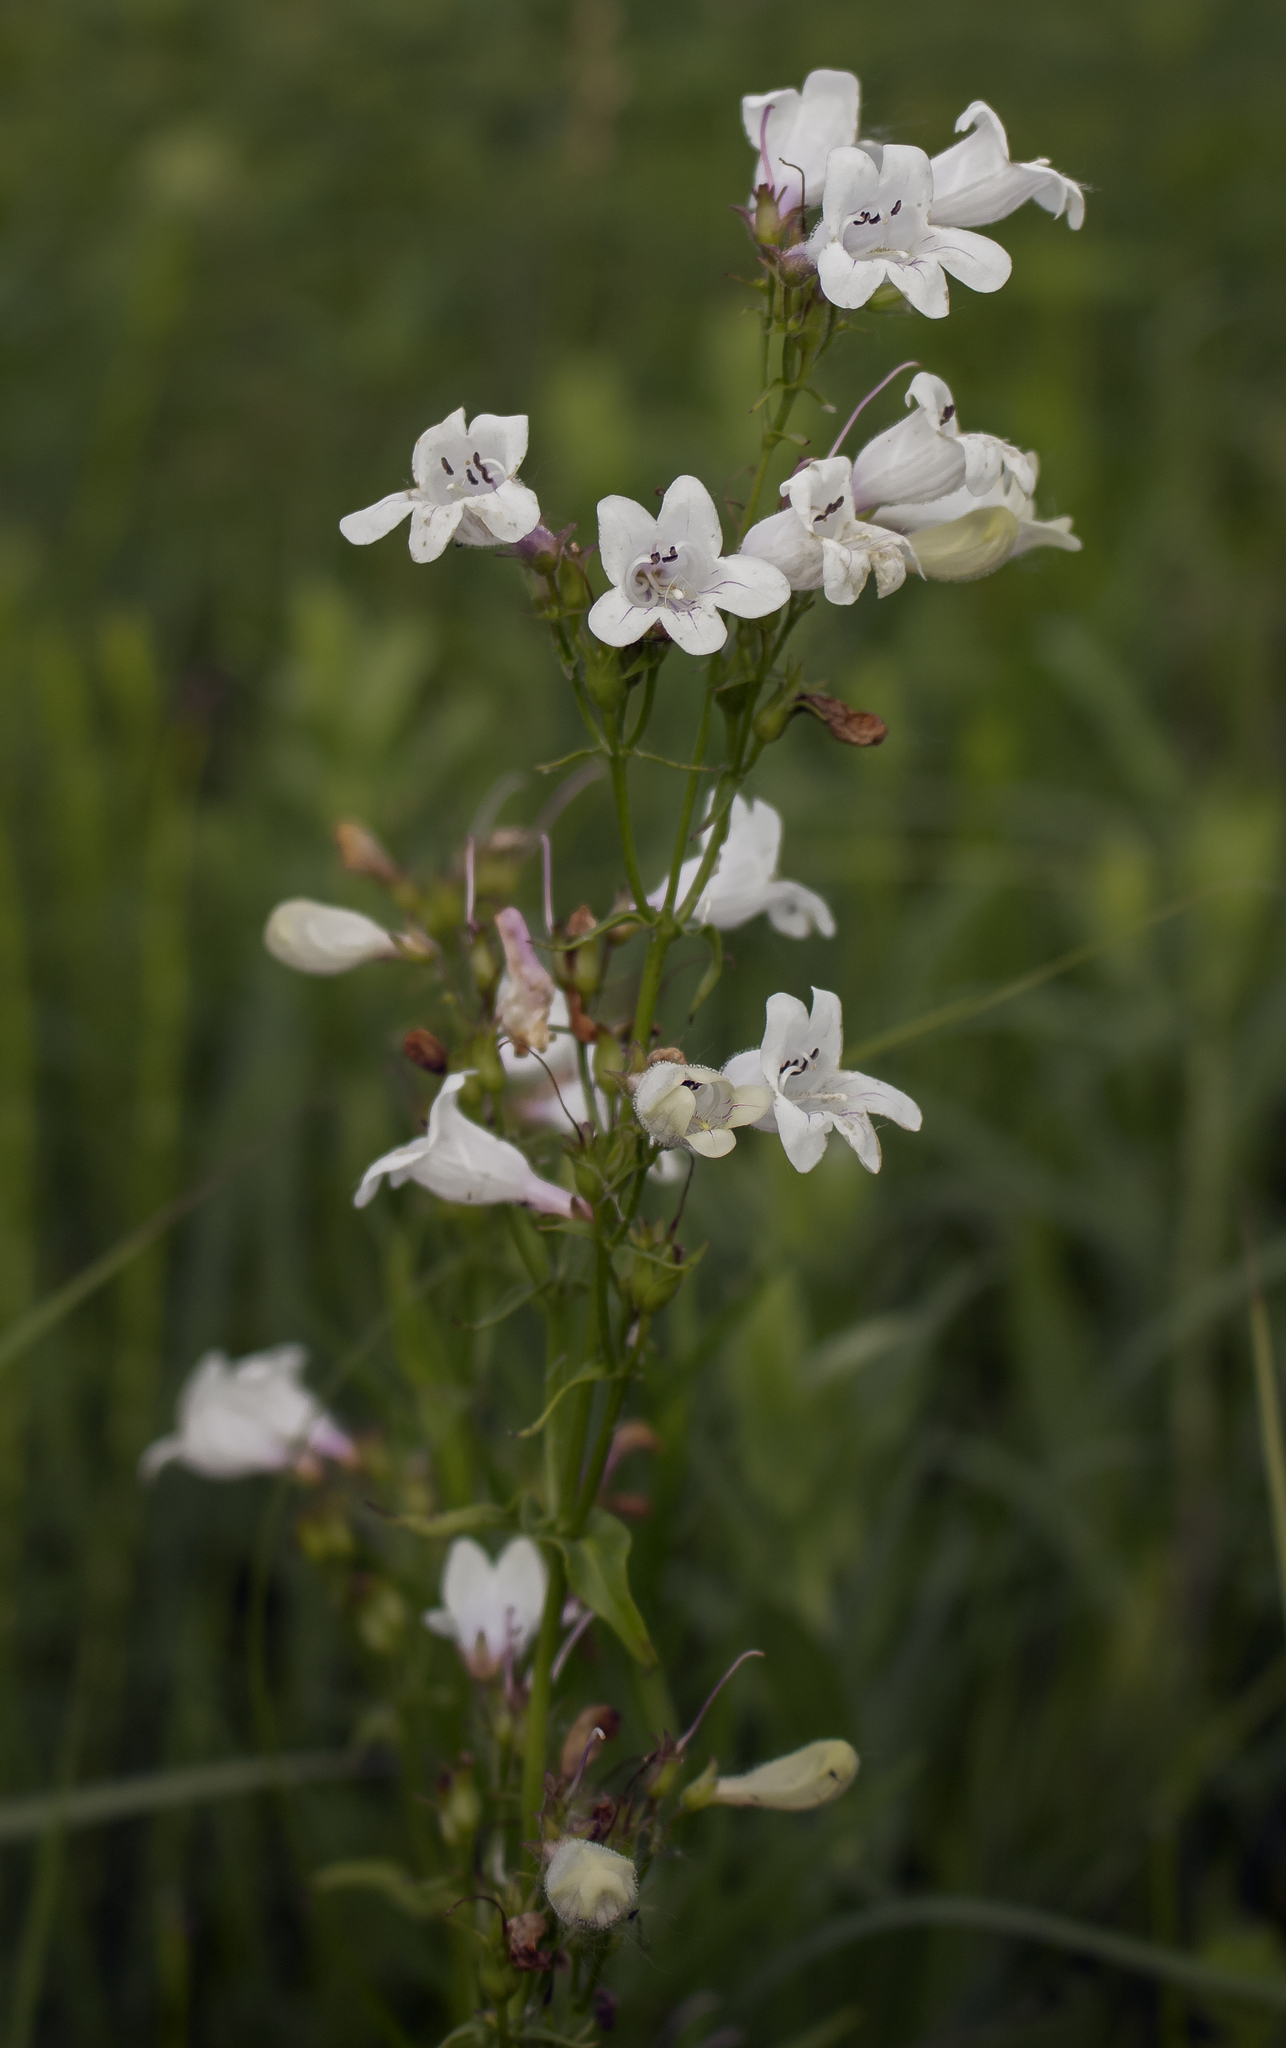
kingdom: Plantae
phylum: Tracheophyta
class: Magnoliopsida
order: Lamiales
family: Plantaginaceae
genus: Penstemon
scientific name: Penstemon digitalis
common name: Foxglove beardtongue
